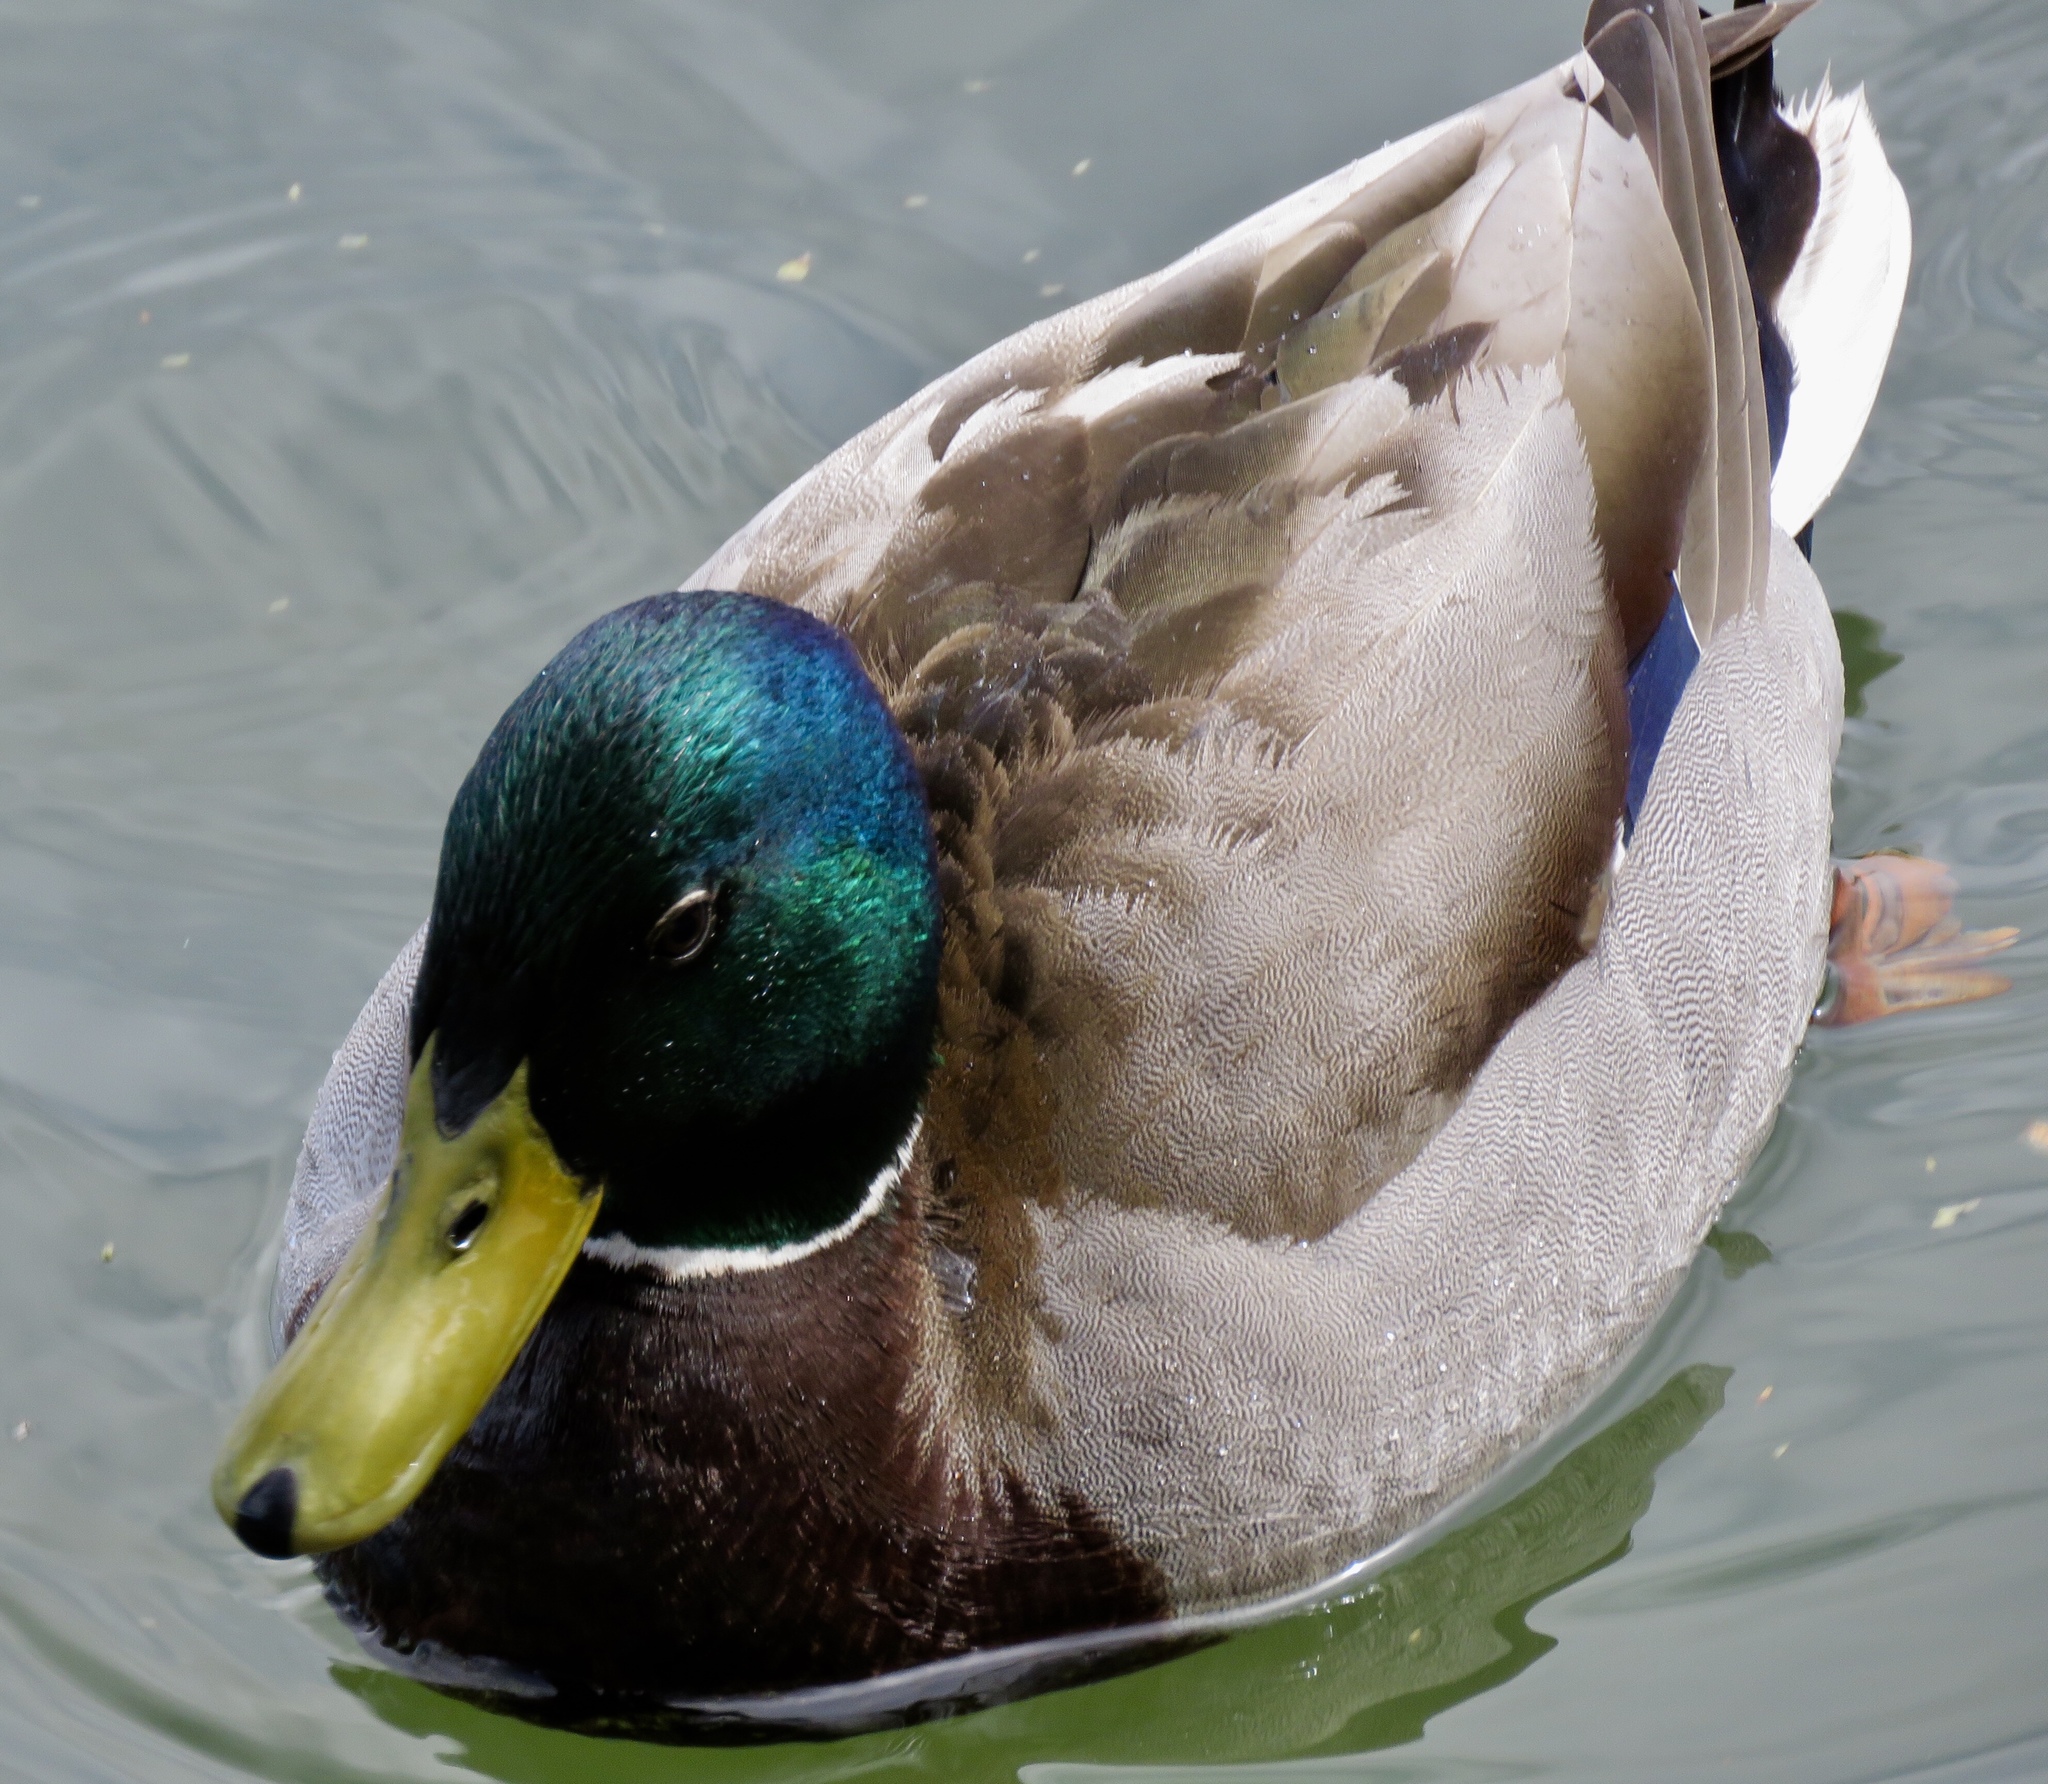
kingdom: Animalia
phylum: Chordata
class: Aves
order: Anseriformes
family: Anatidae
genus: Anas
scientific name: Anas platyrhynchos
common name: Mallard
